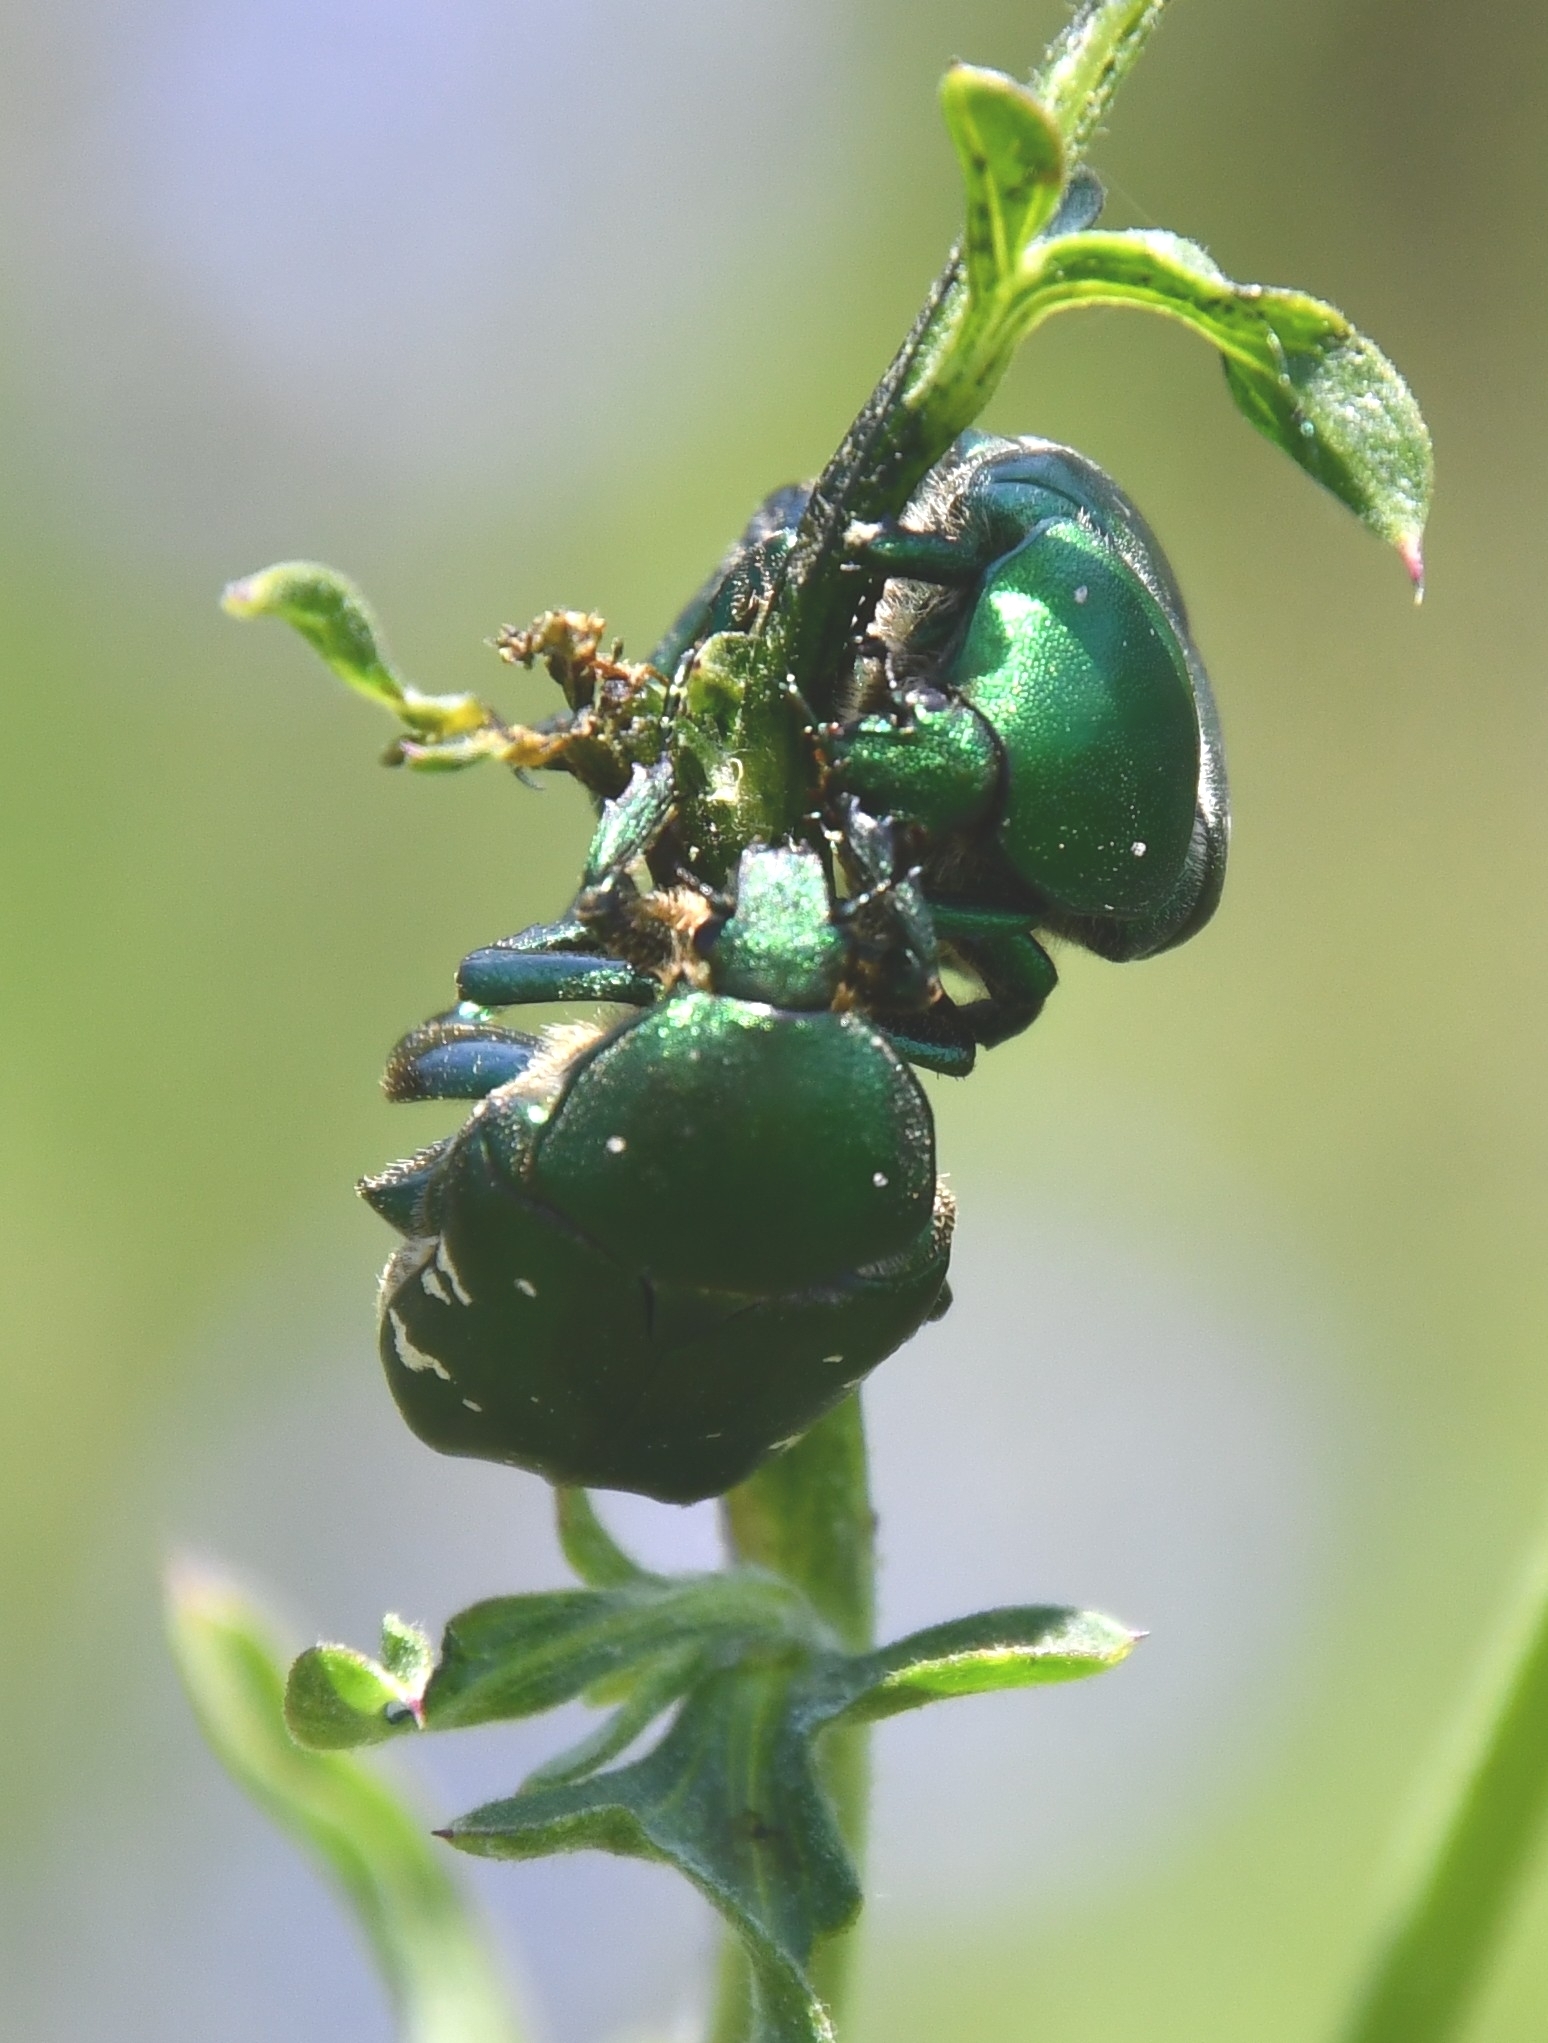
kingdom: Animalia
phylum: Arthropoda
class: Insecta
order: Coleoptera
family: Scarabaeidae
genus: Protaetia
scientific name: Protaetia ungarica
